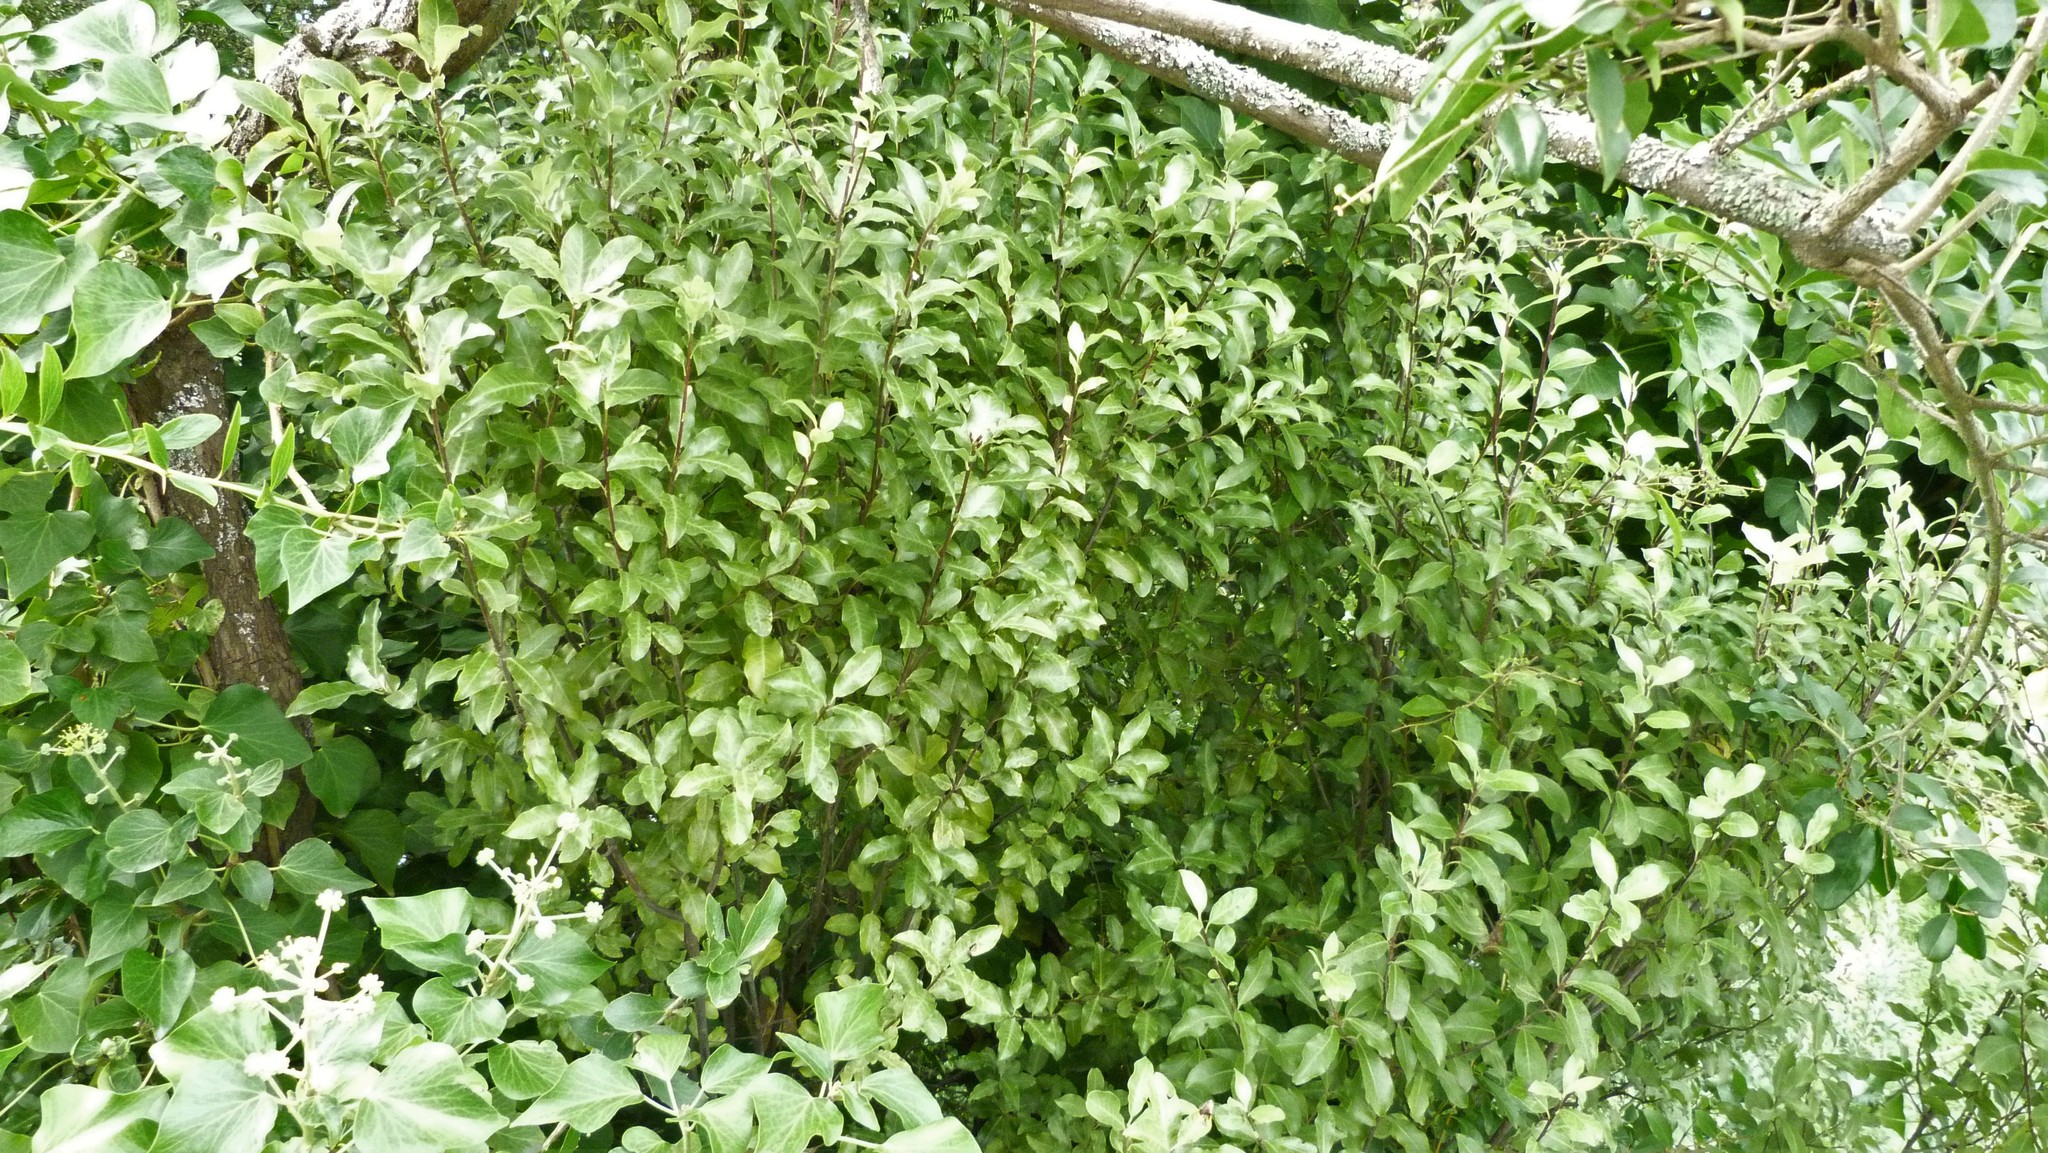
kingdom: Plantae
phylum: Tracheophyta
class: Magnoliopsida
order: Apiales
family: Pittosporaceae
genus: Pittosporum
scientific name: Pittosporum tenuifolium
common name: Kohuhu
